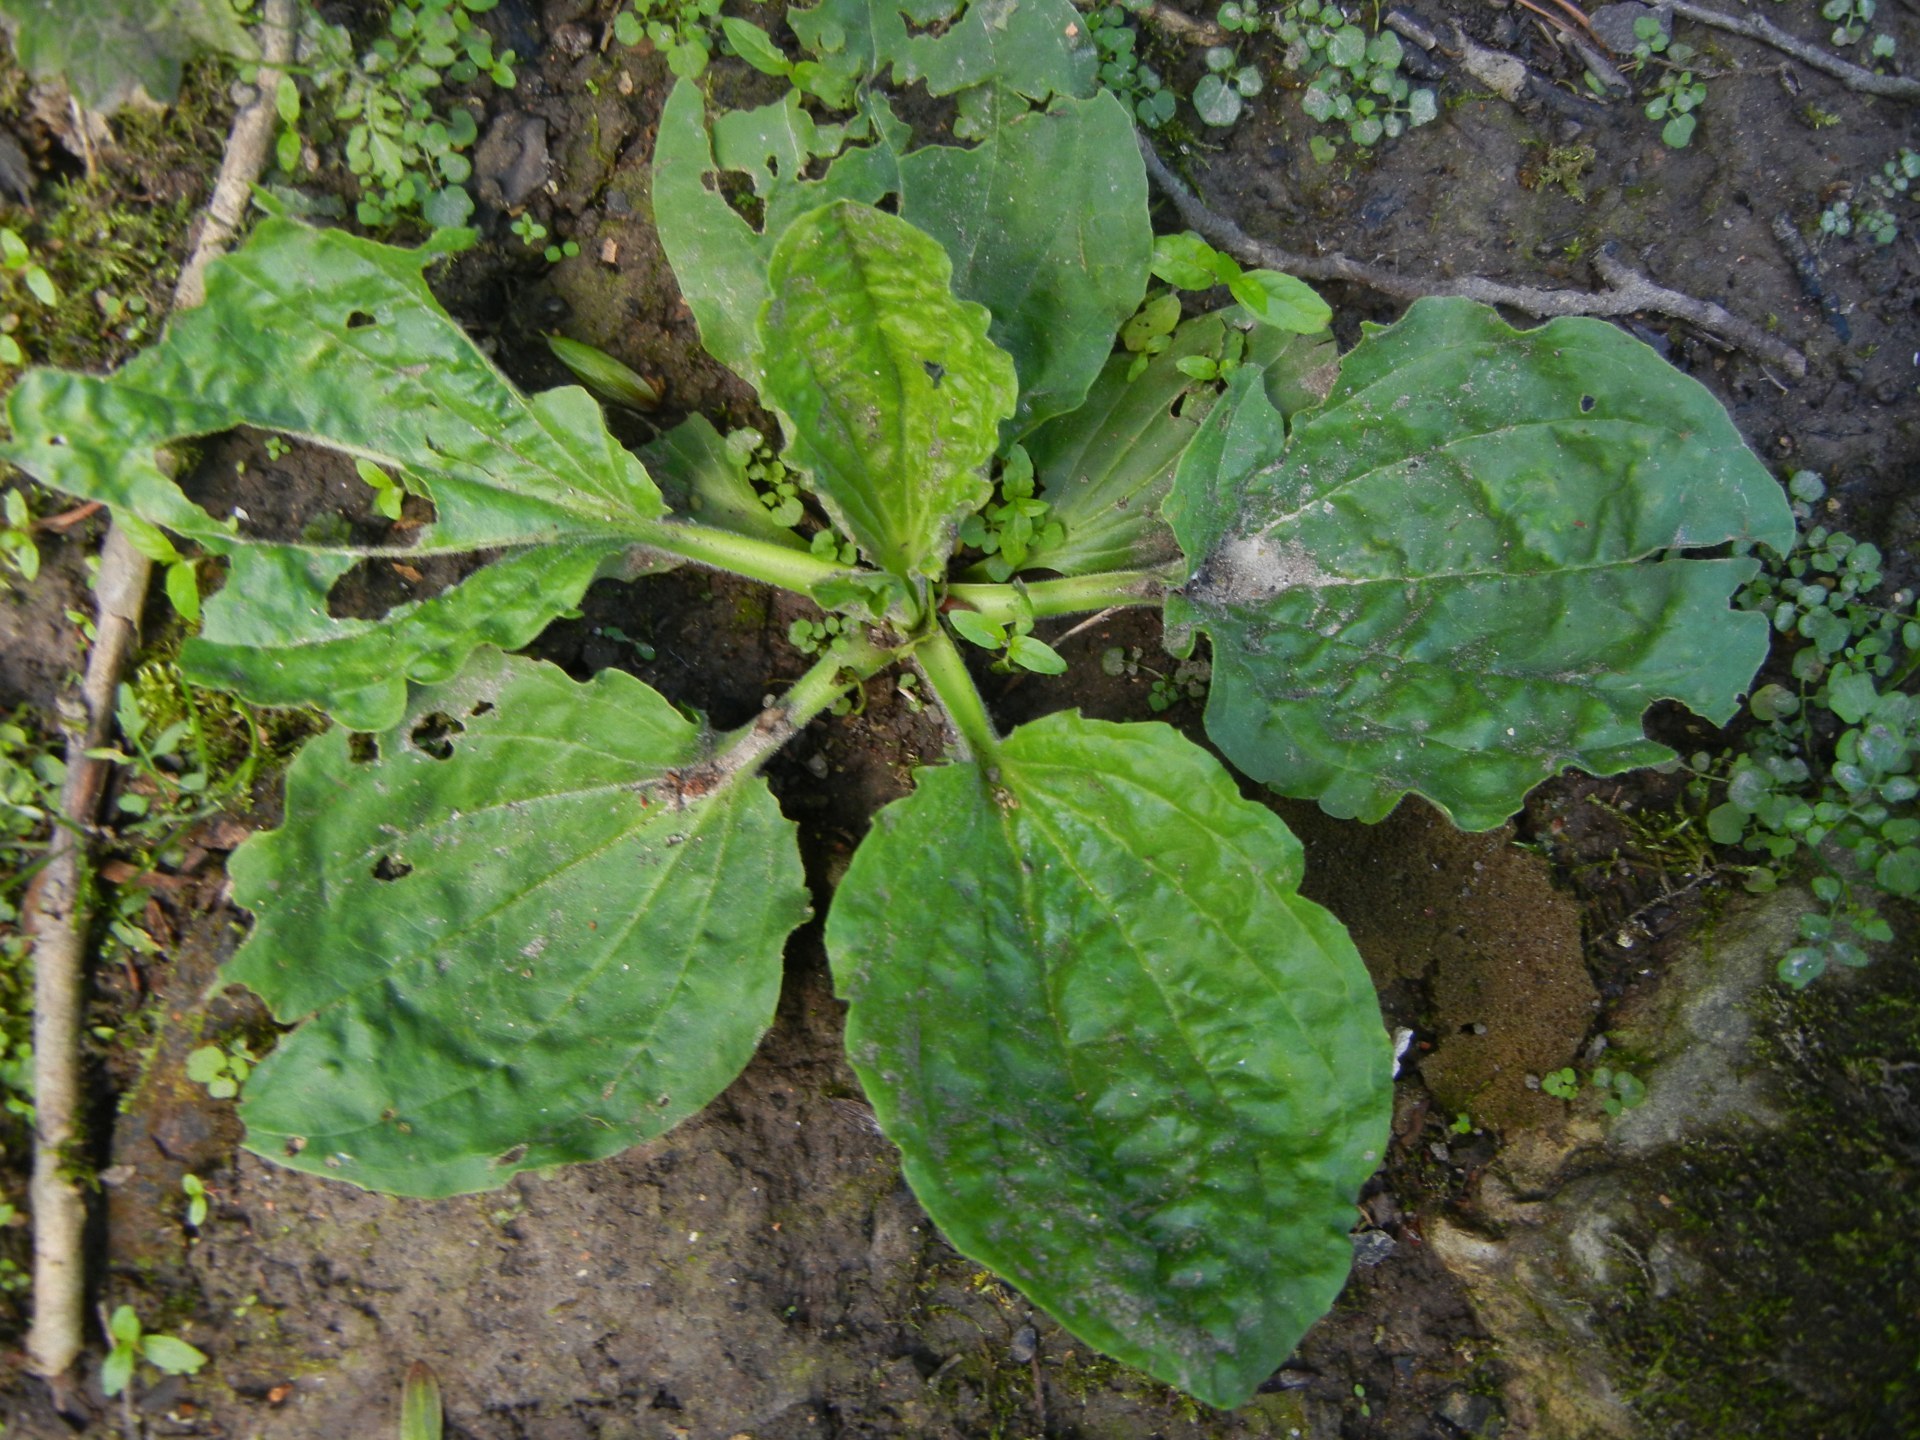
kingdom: Plantae
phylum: Tracheophyta
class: Magnoliopsida
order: Lamiales
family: Plantaginaceae
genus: Plantago
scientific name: Plantago major
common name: Common plantain
